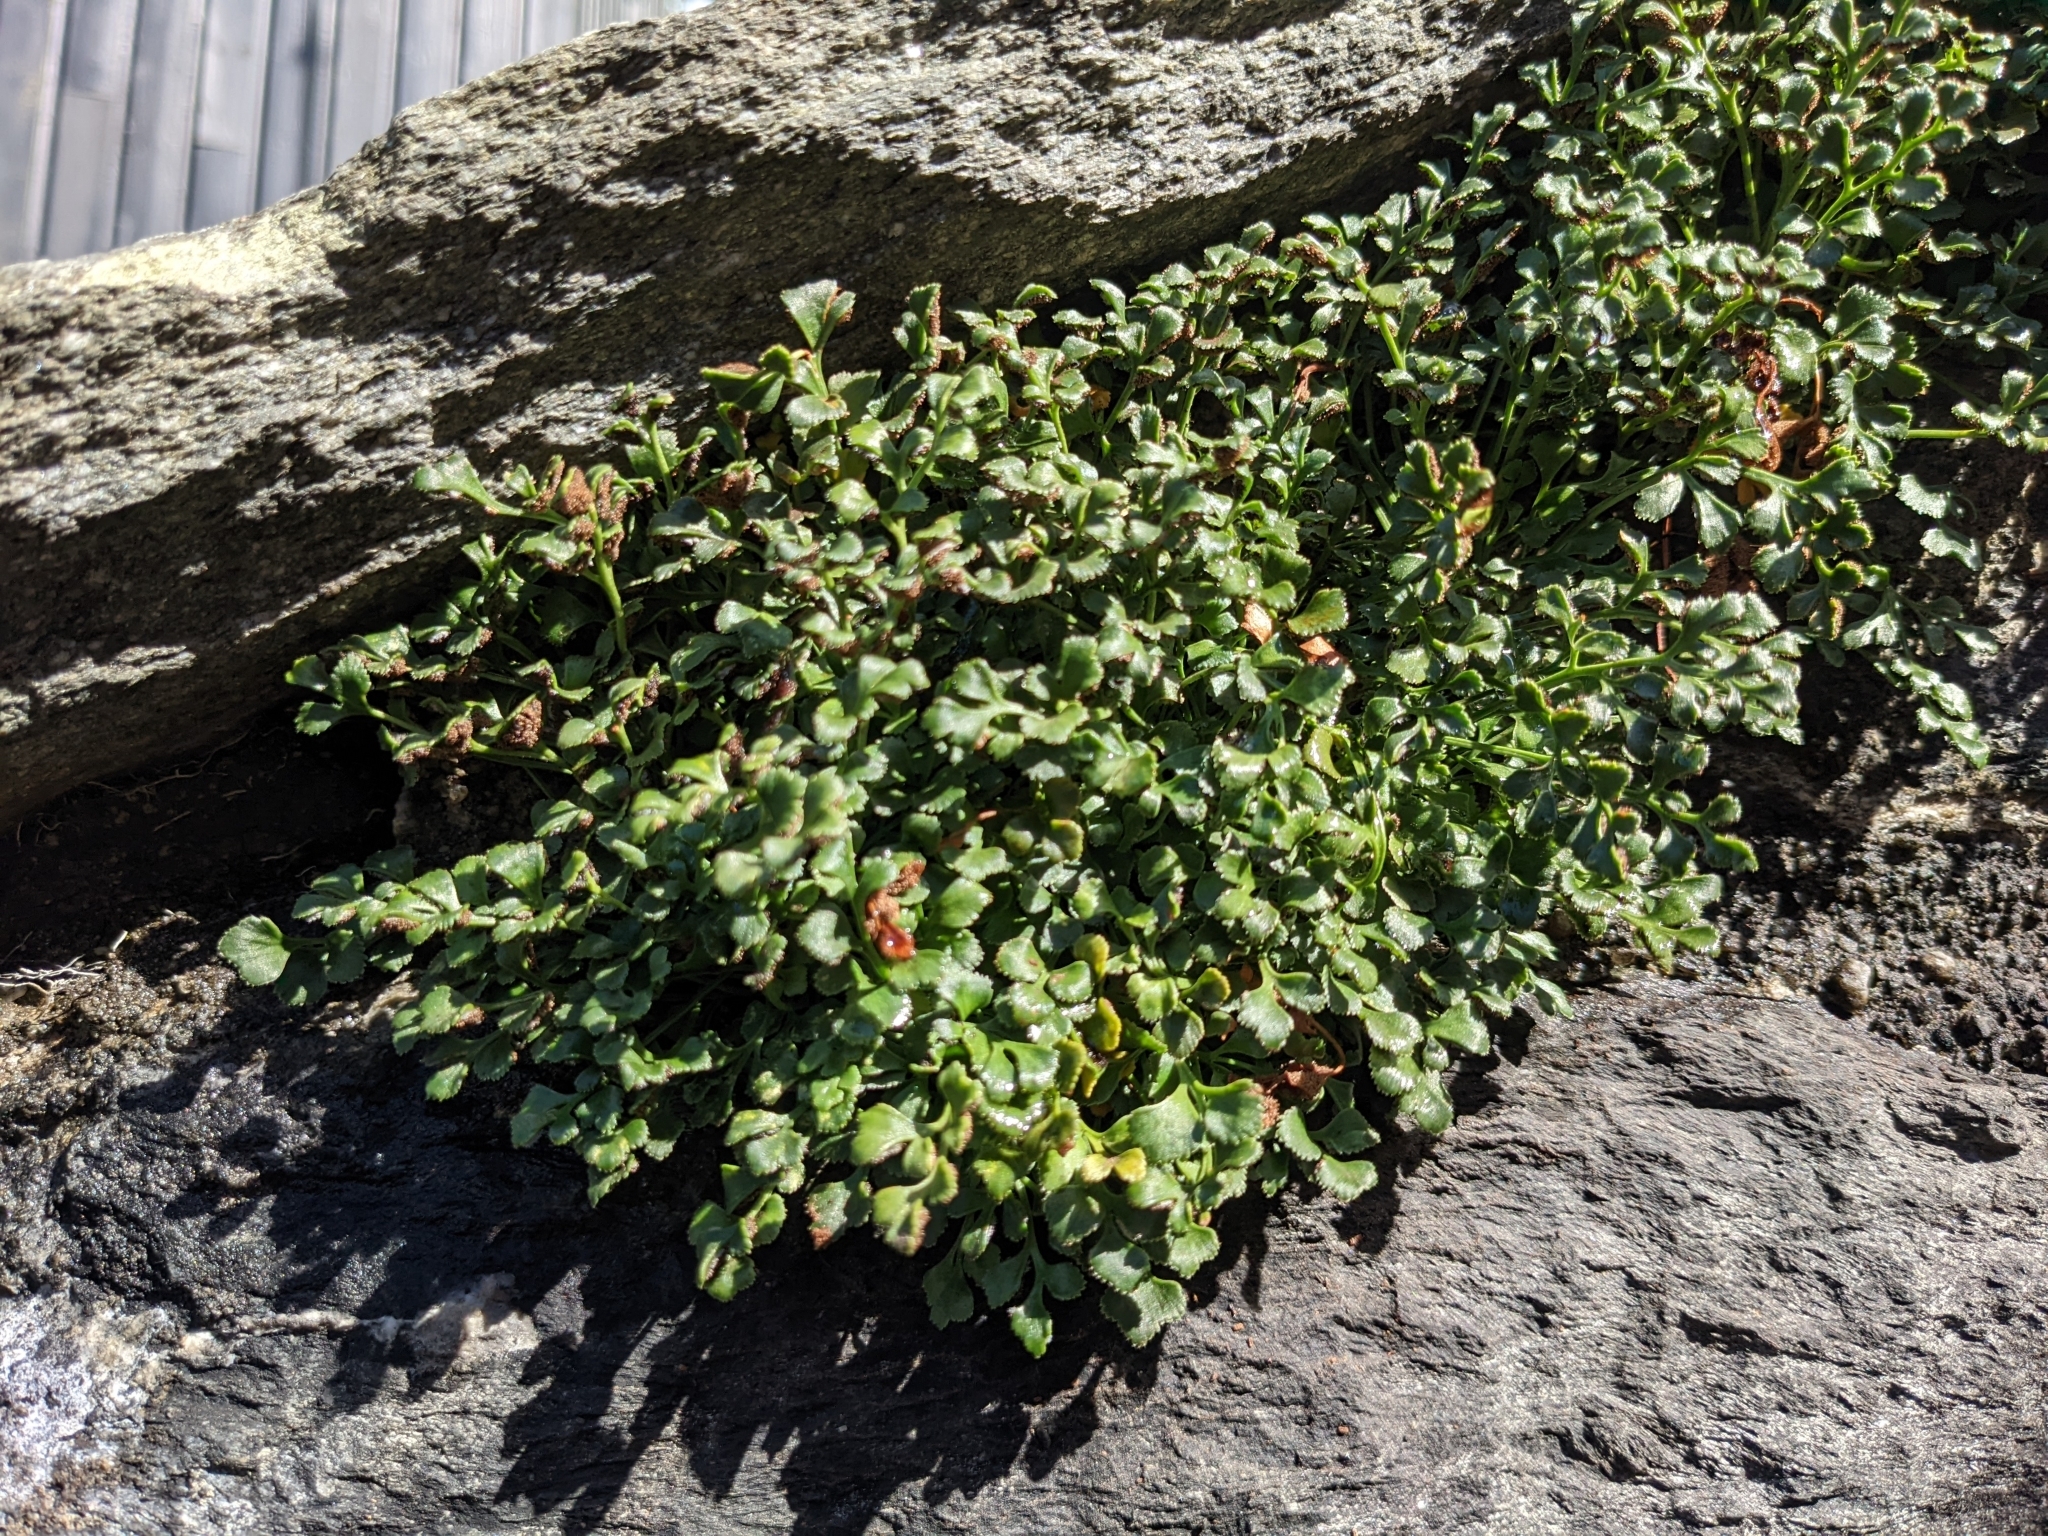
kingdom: Plantae
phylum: Tracheophyta
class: Polypodiopsida
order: Polypodiales
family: Aspleniaceae
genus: Asplenium
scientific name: Asplenium ruta-muraria
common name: Wall-rue
